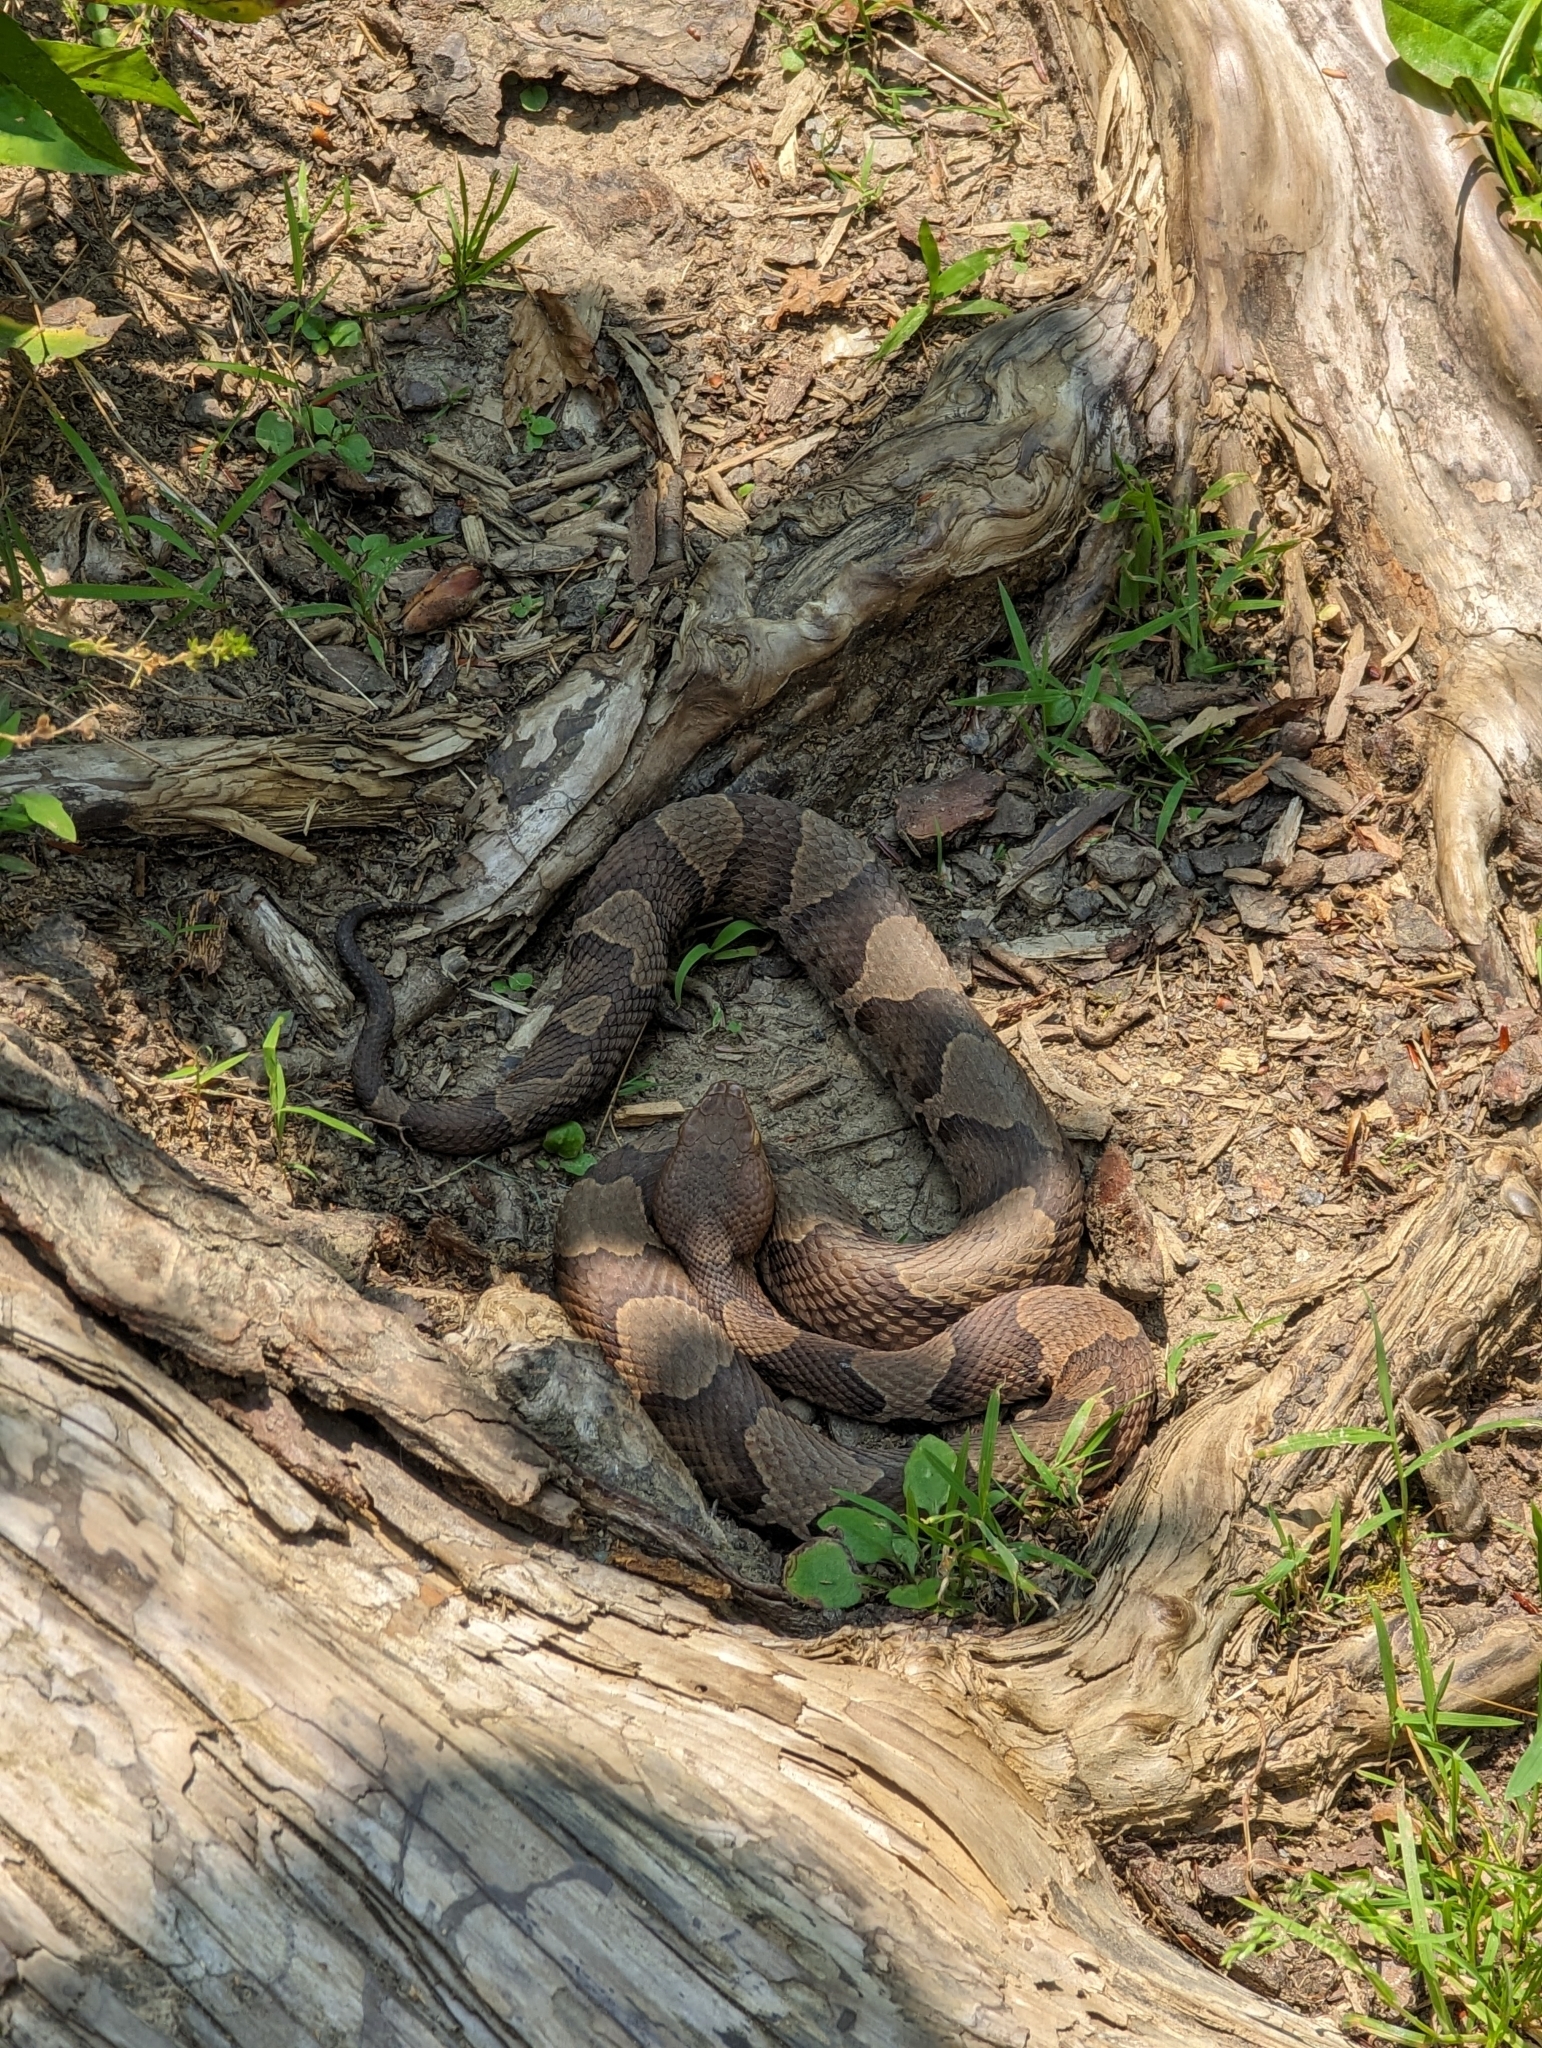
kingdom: Animalia
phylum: Chordata
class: Squamata
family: Viperidae
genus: Agkistrodon
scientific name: Agkistrodon contortrix
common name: Northern copperhead
